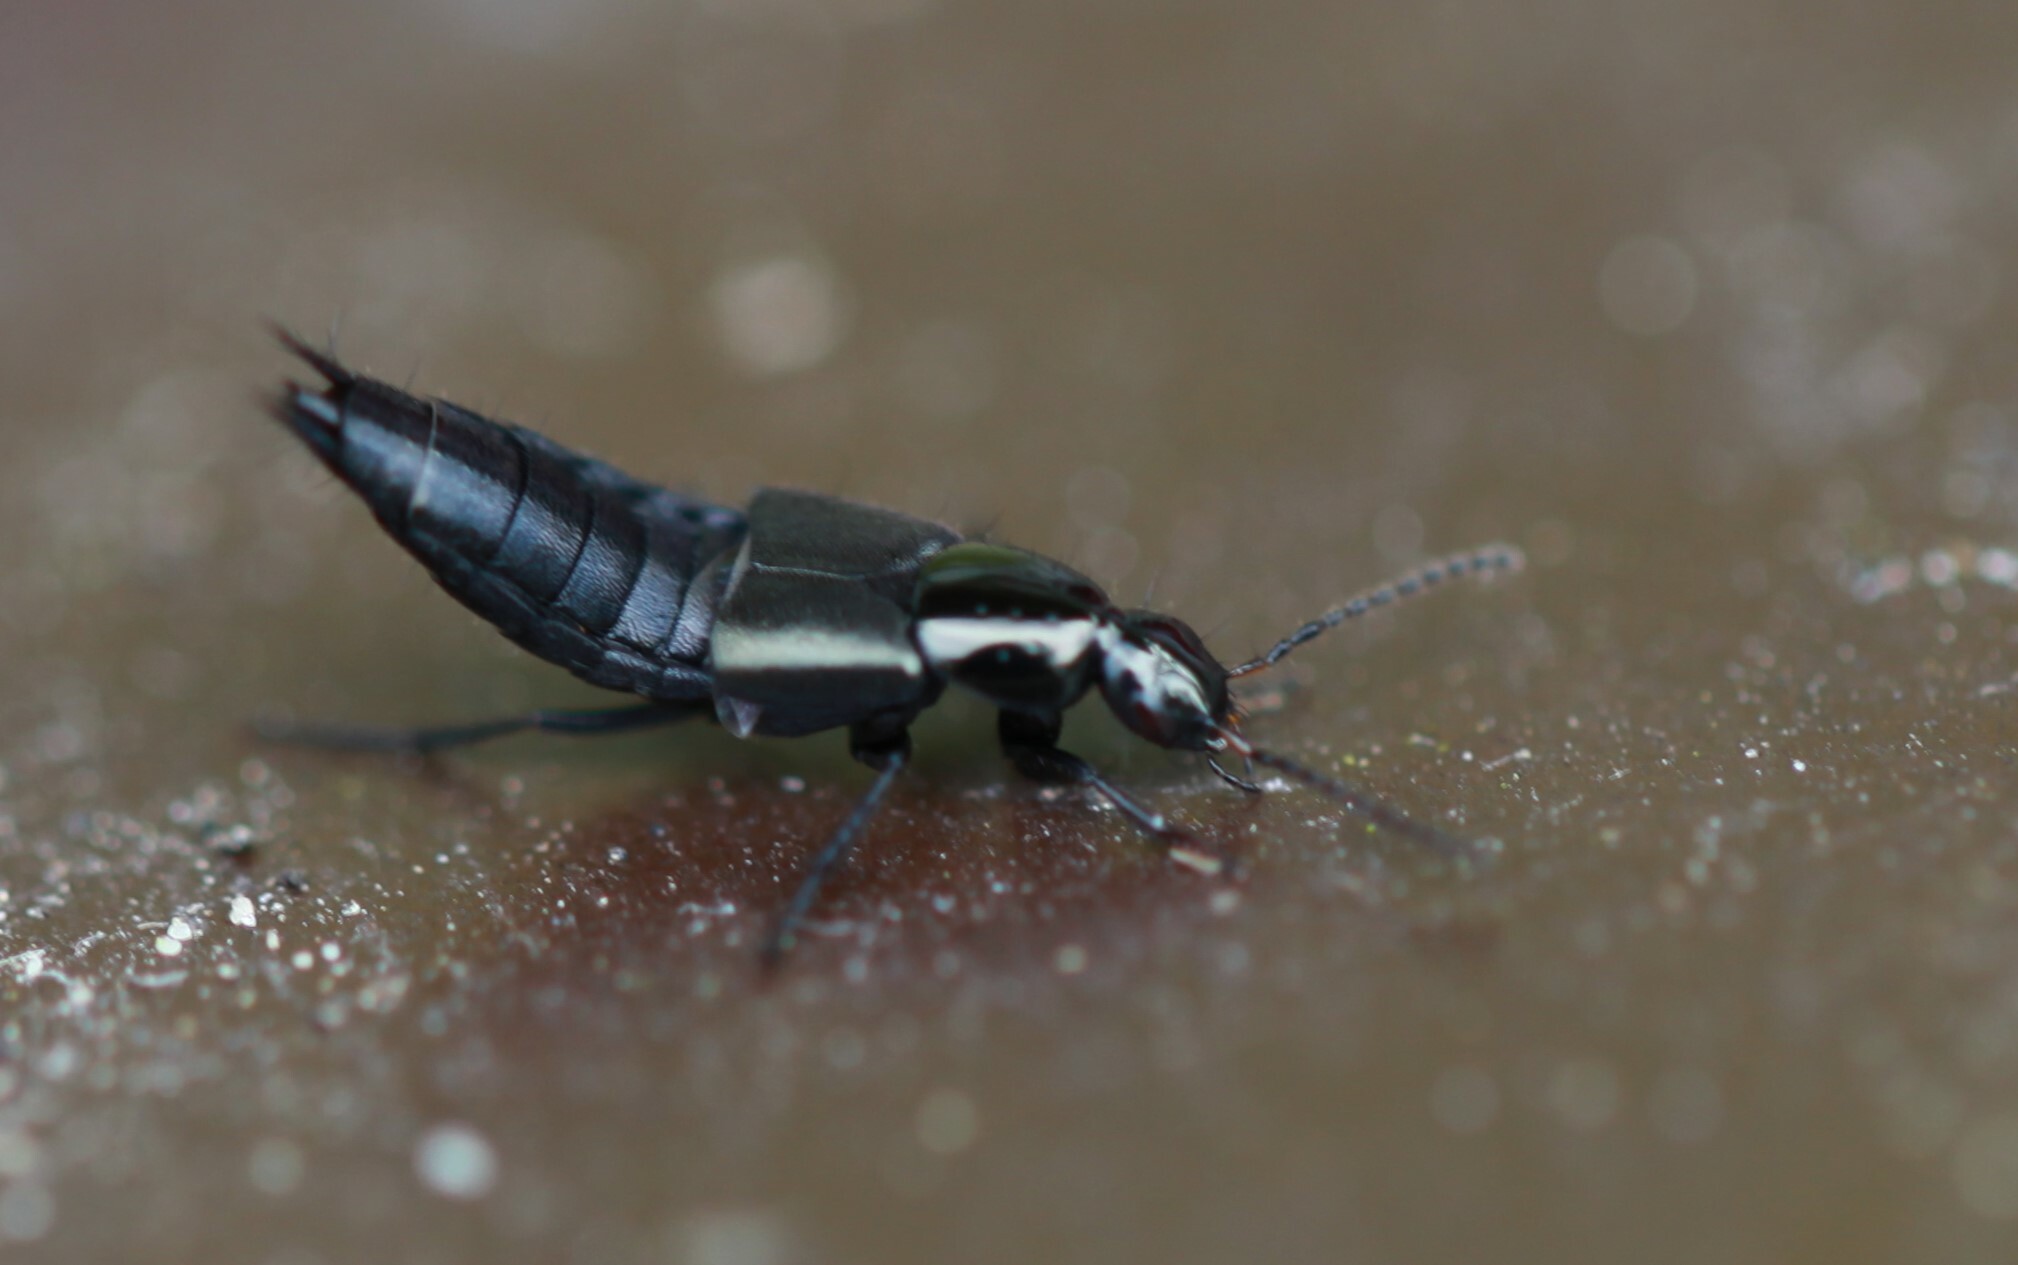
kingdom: Animalia
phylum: Arthropoda
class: Insecta
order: Coleoptera
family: Staphylinidae
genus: Philonthus
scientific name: Philonthus cognatus
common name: Staph beetle
